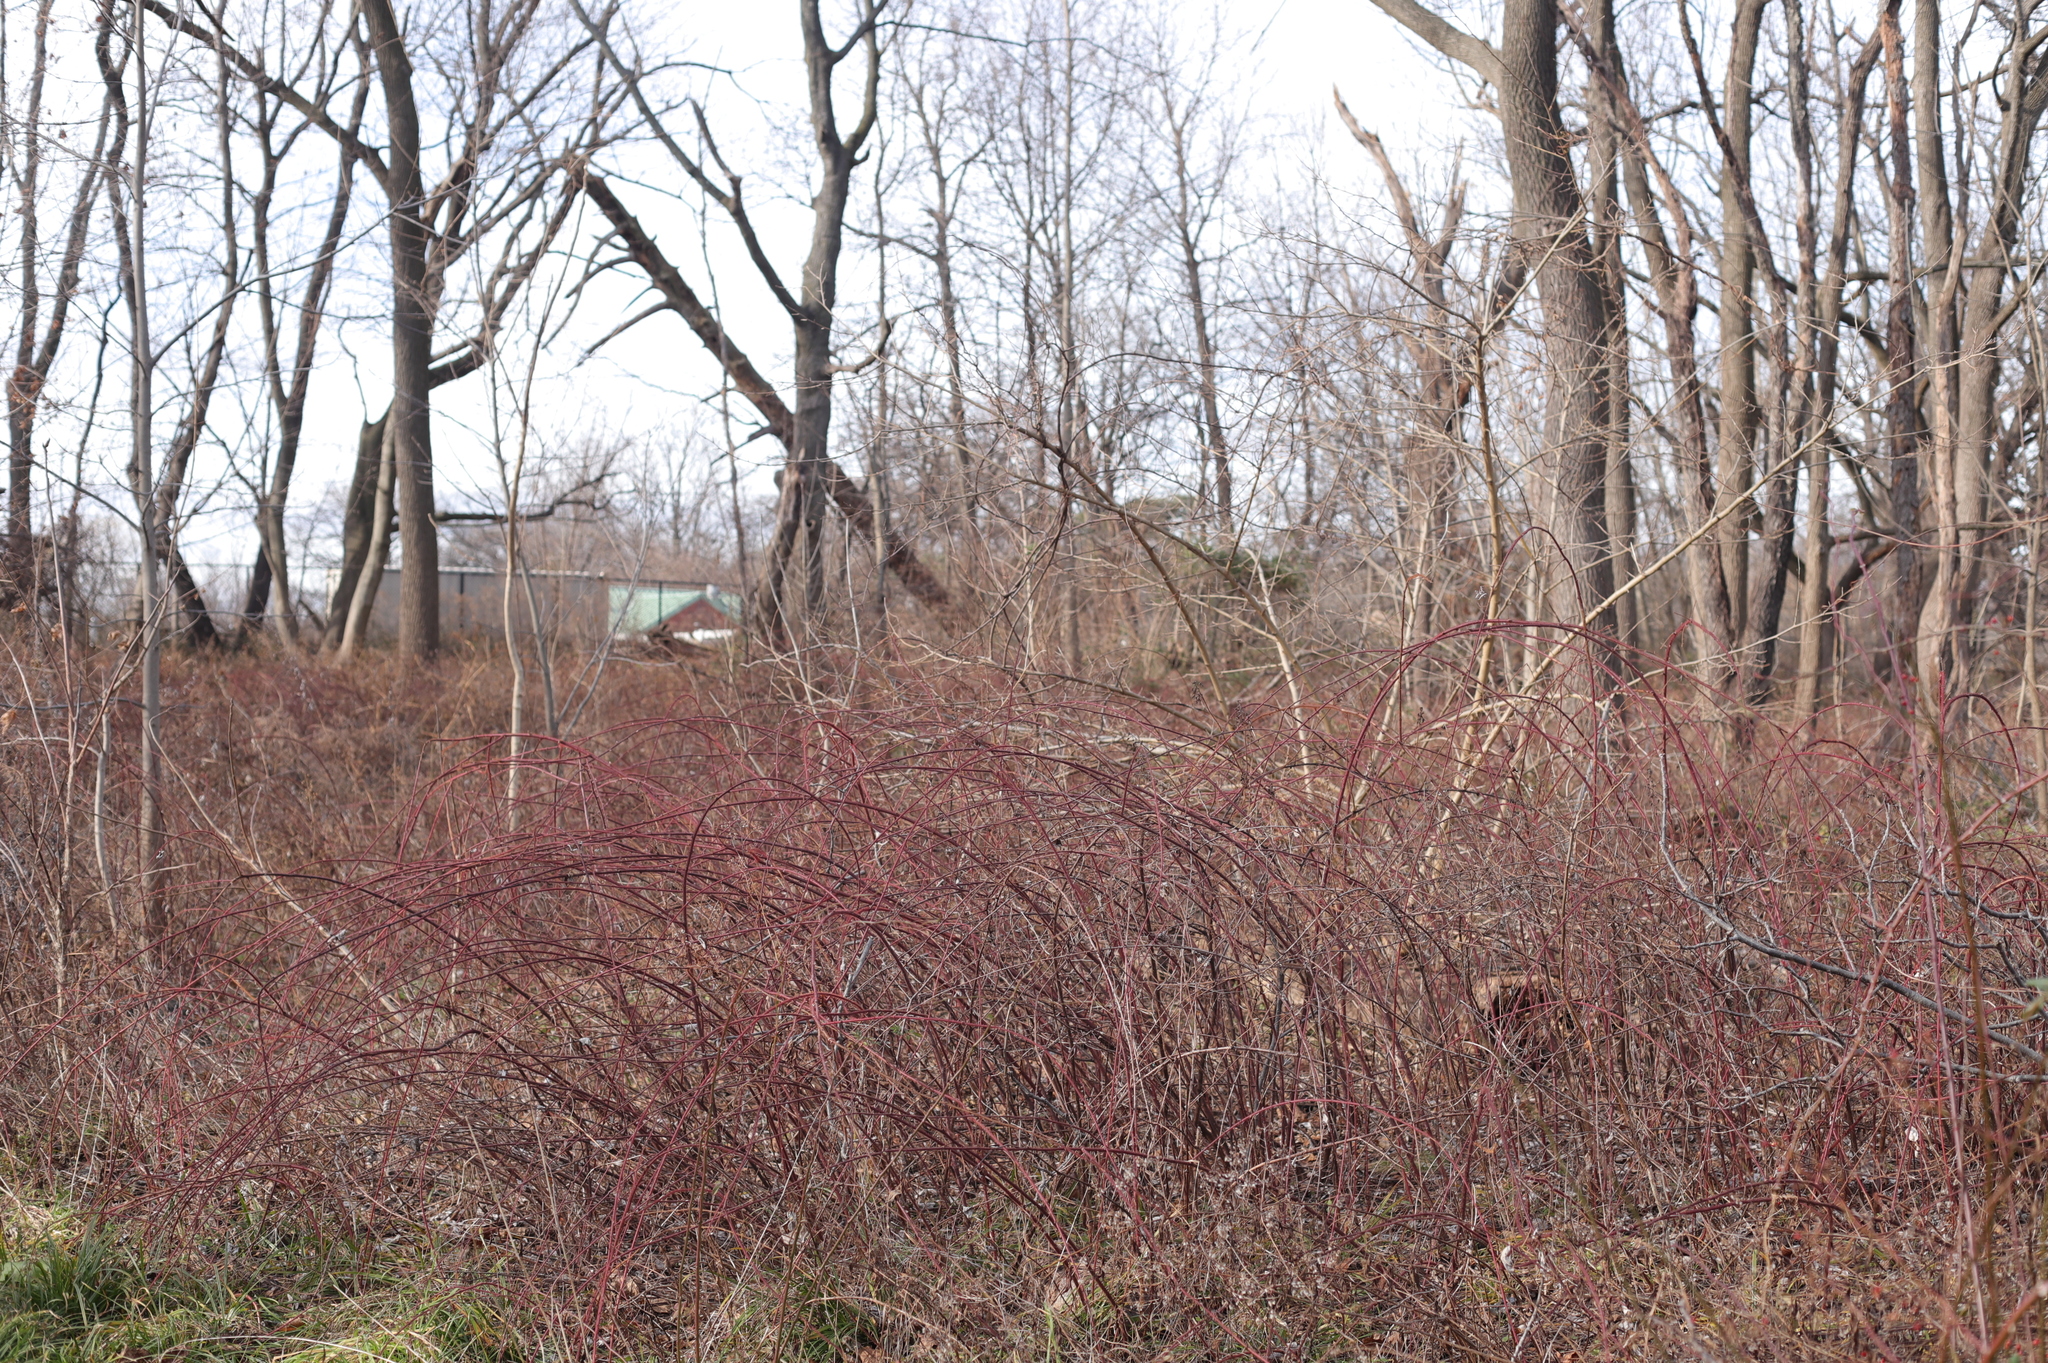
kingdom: Plantae
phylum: Tracheophyta
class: Magnoliopsida
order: Rosales
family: Rosaceae
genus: Rubus
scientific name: Rubus phoenicolasius
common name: Japanese wineberry
